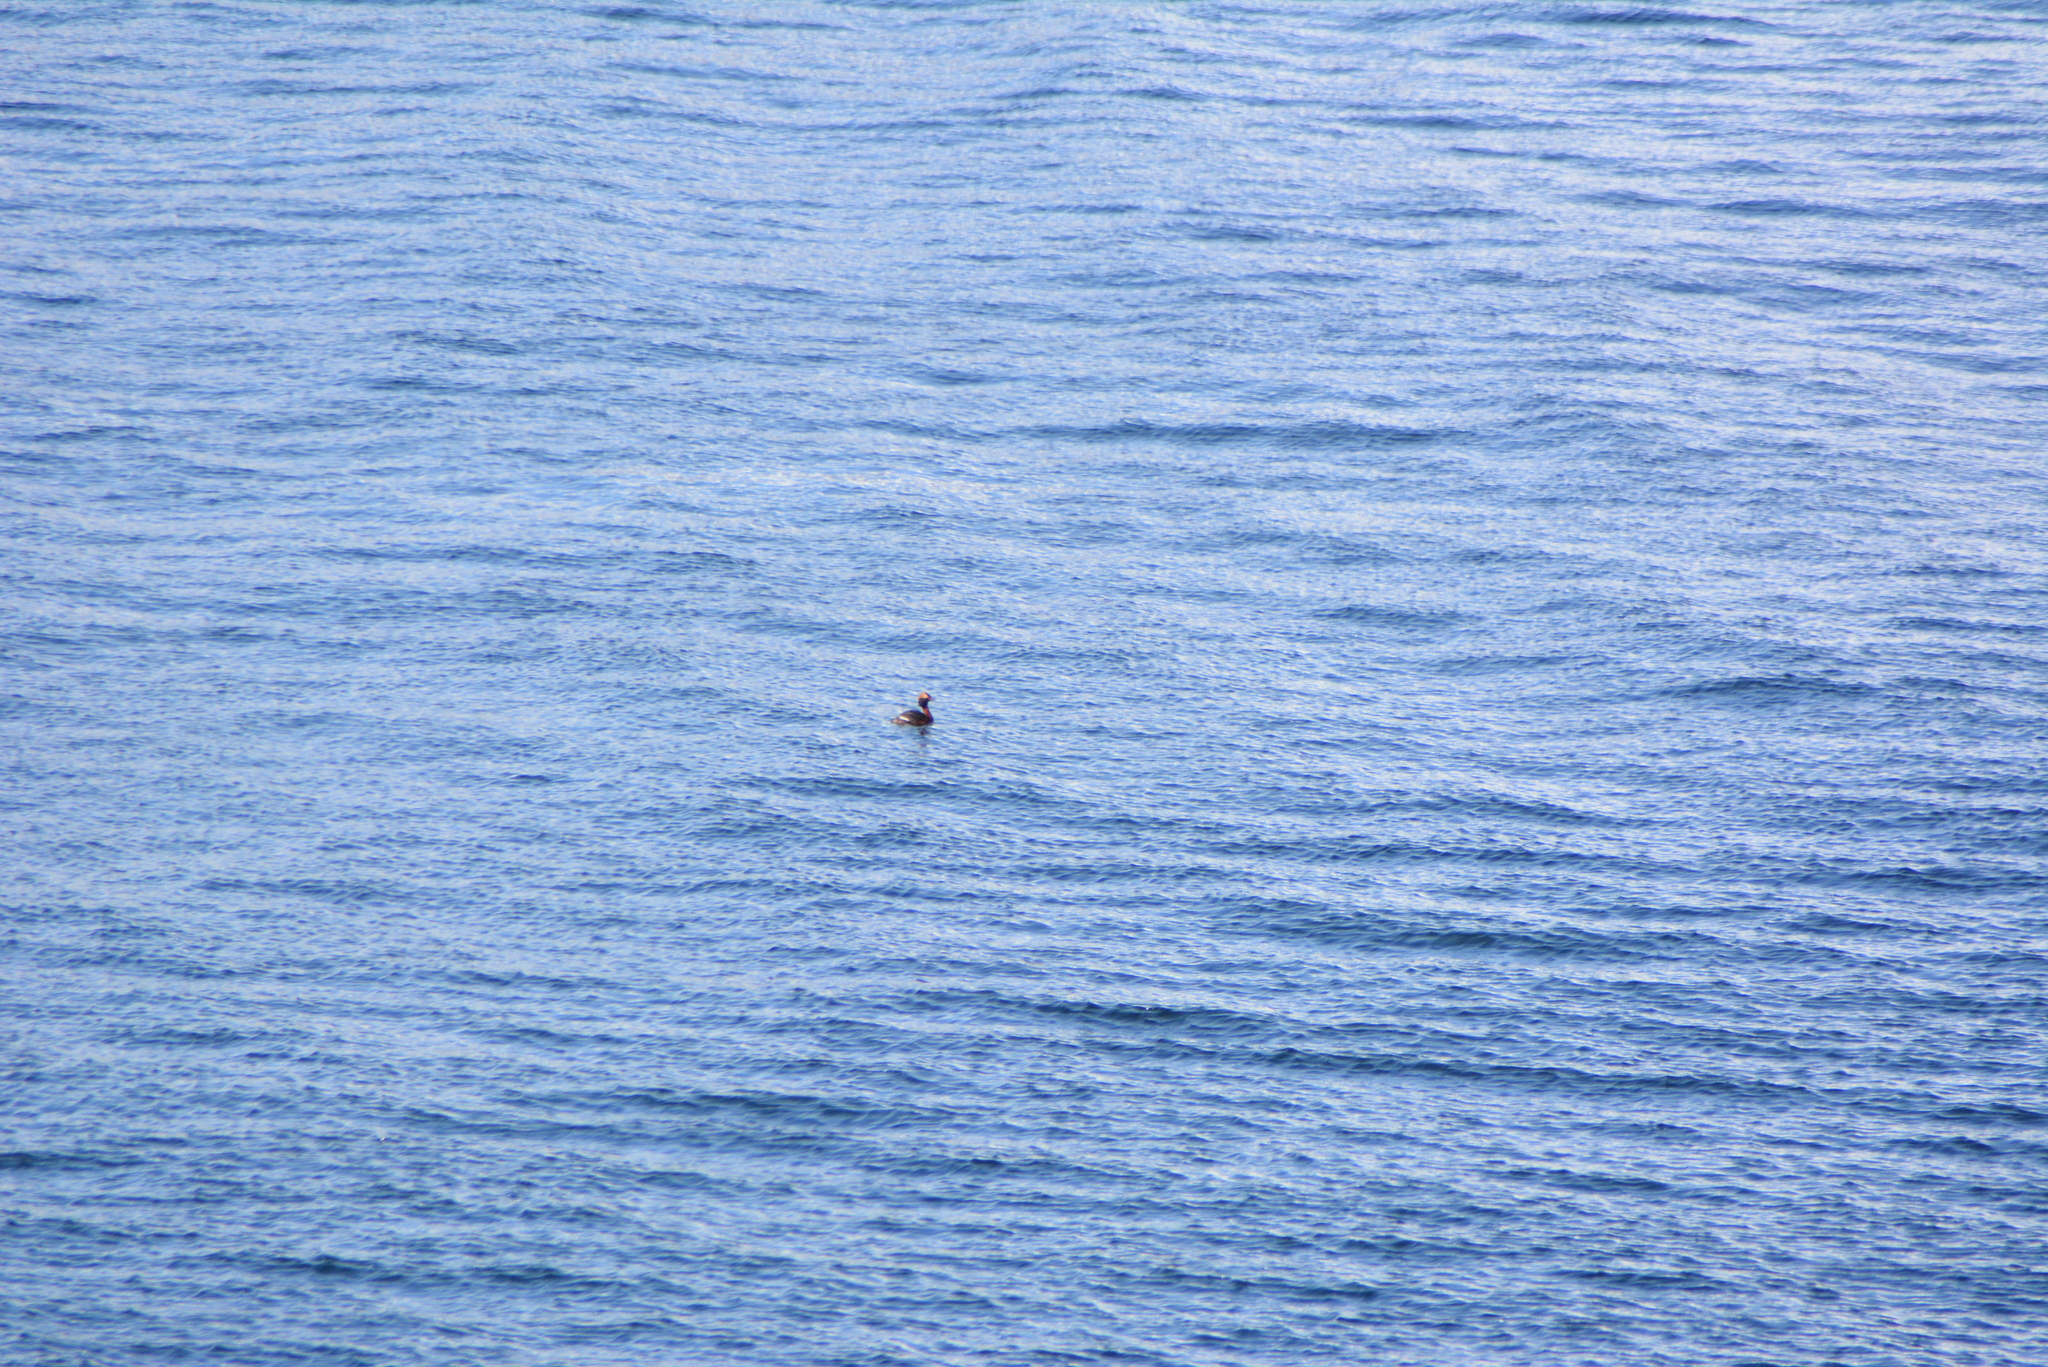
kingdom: Animalia
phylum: Chordata
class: Aves
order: Podicipediformes
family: Podicipedidae
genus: Podiceps
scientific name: Podiceps auritus
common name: Horned grebe
